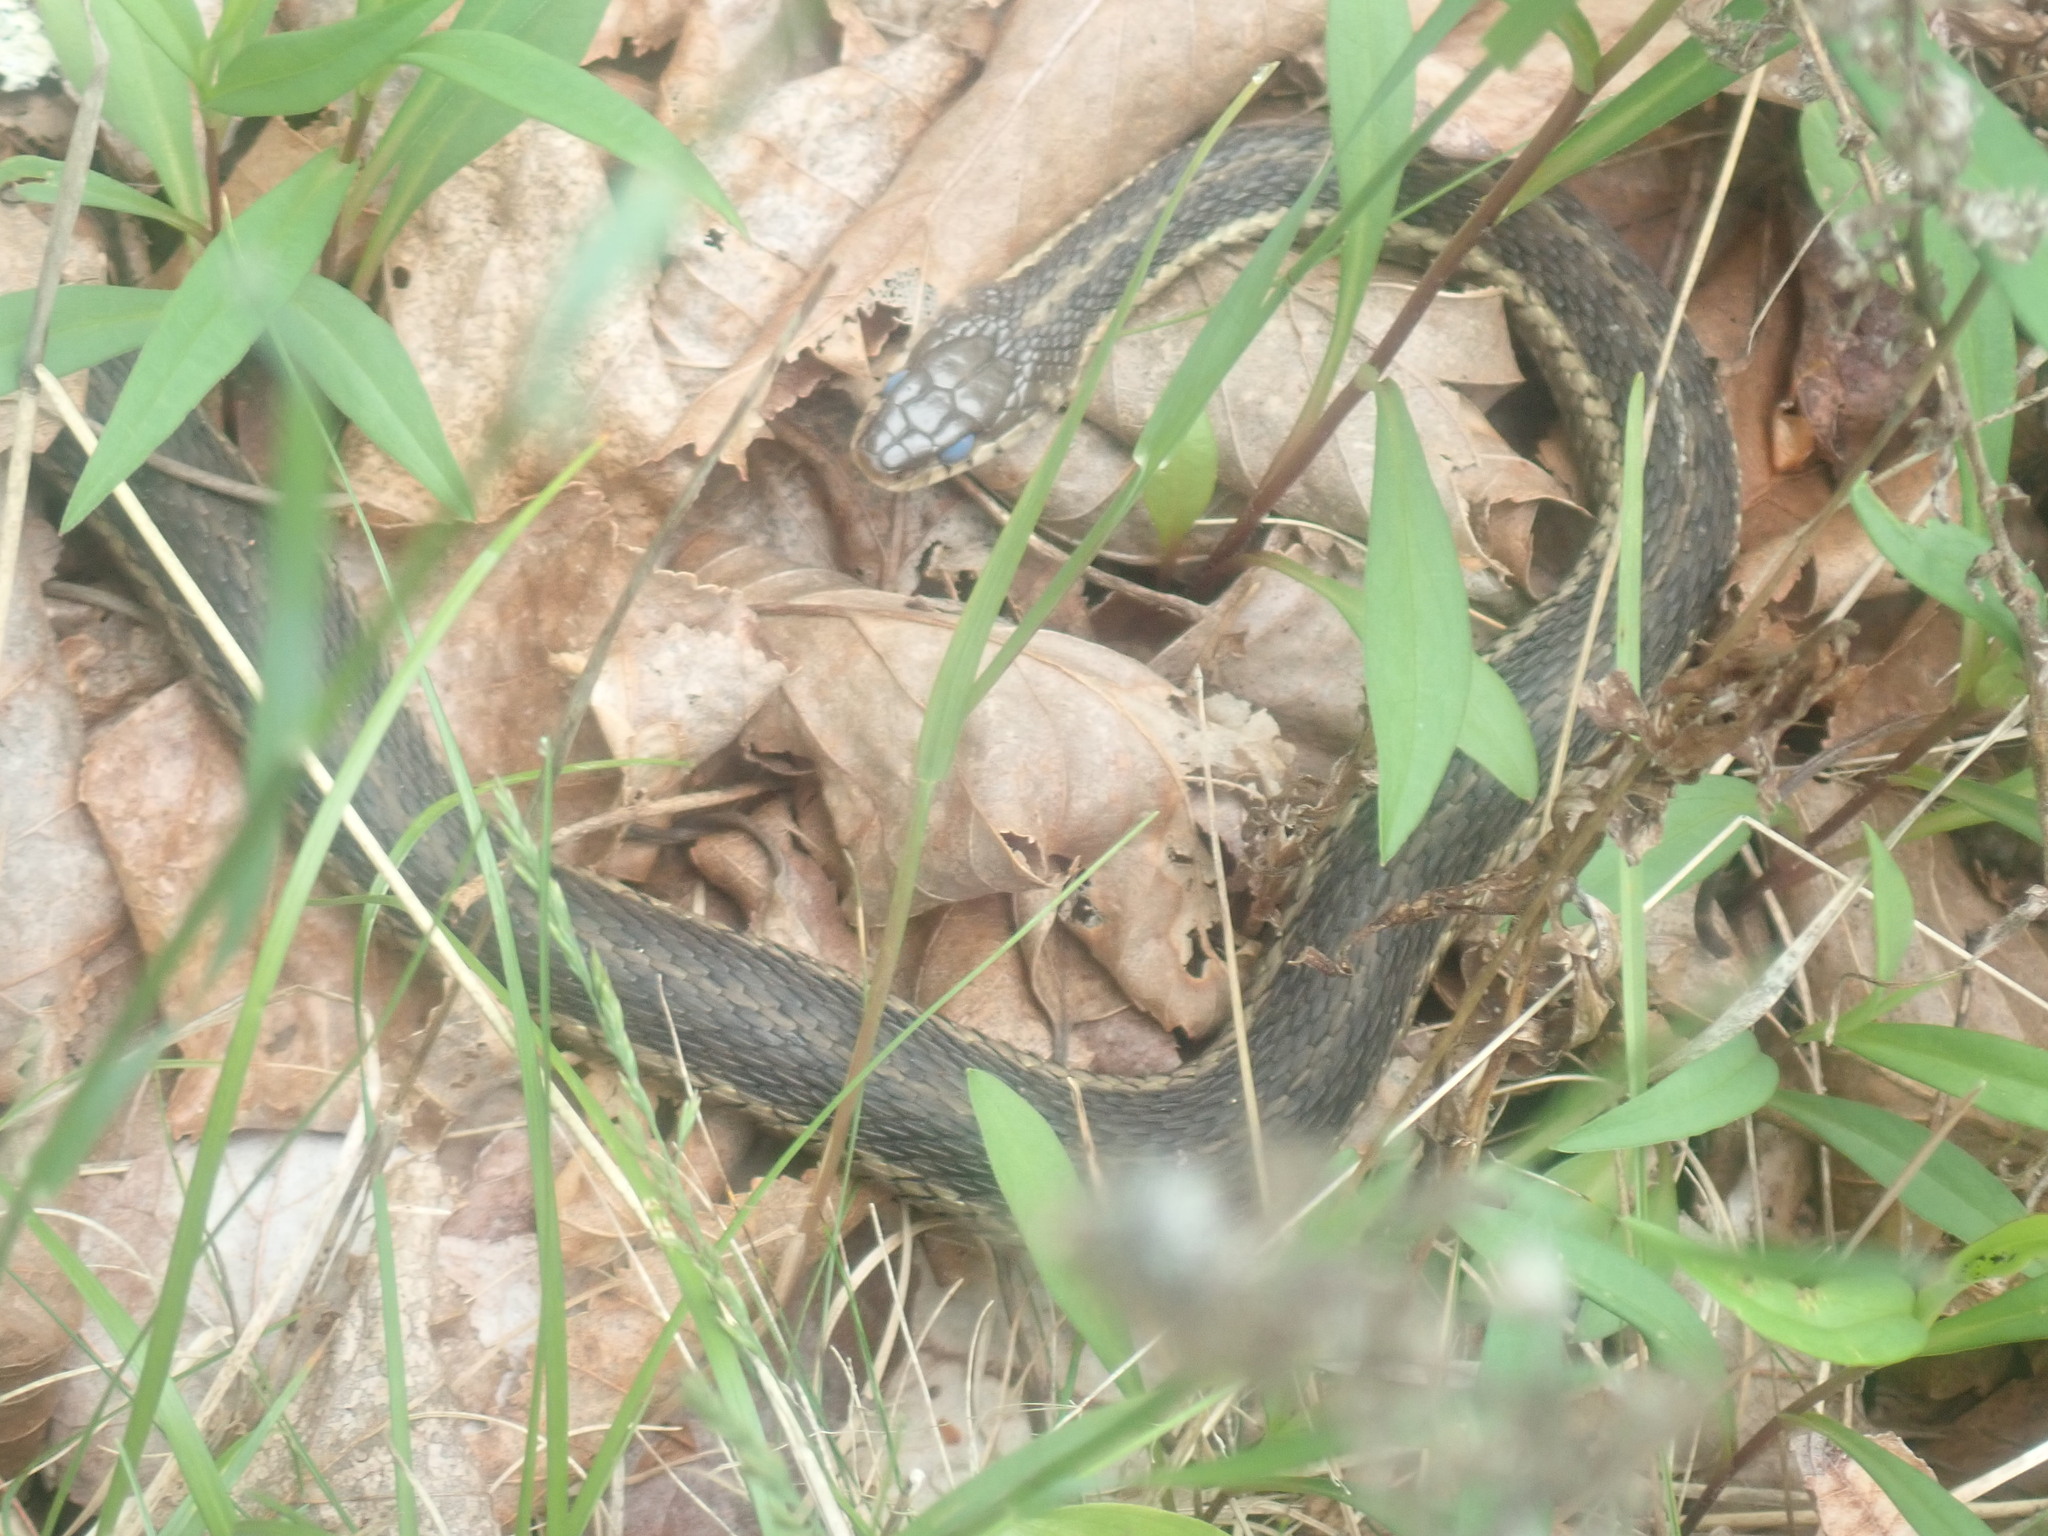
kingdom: Animalia
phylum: Chordata
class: Squamata
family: Colubridae
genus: Thamnophis
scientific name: Thamnophis sirtalis
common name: Common garter snake
